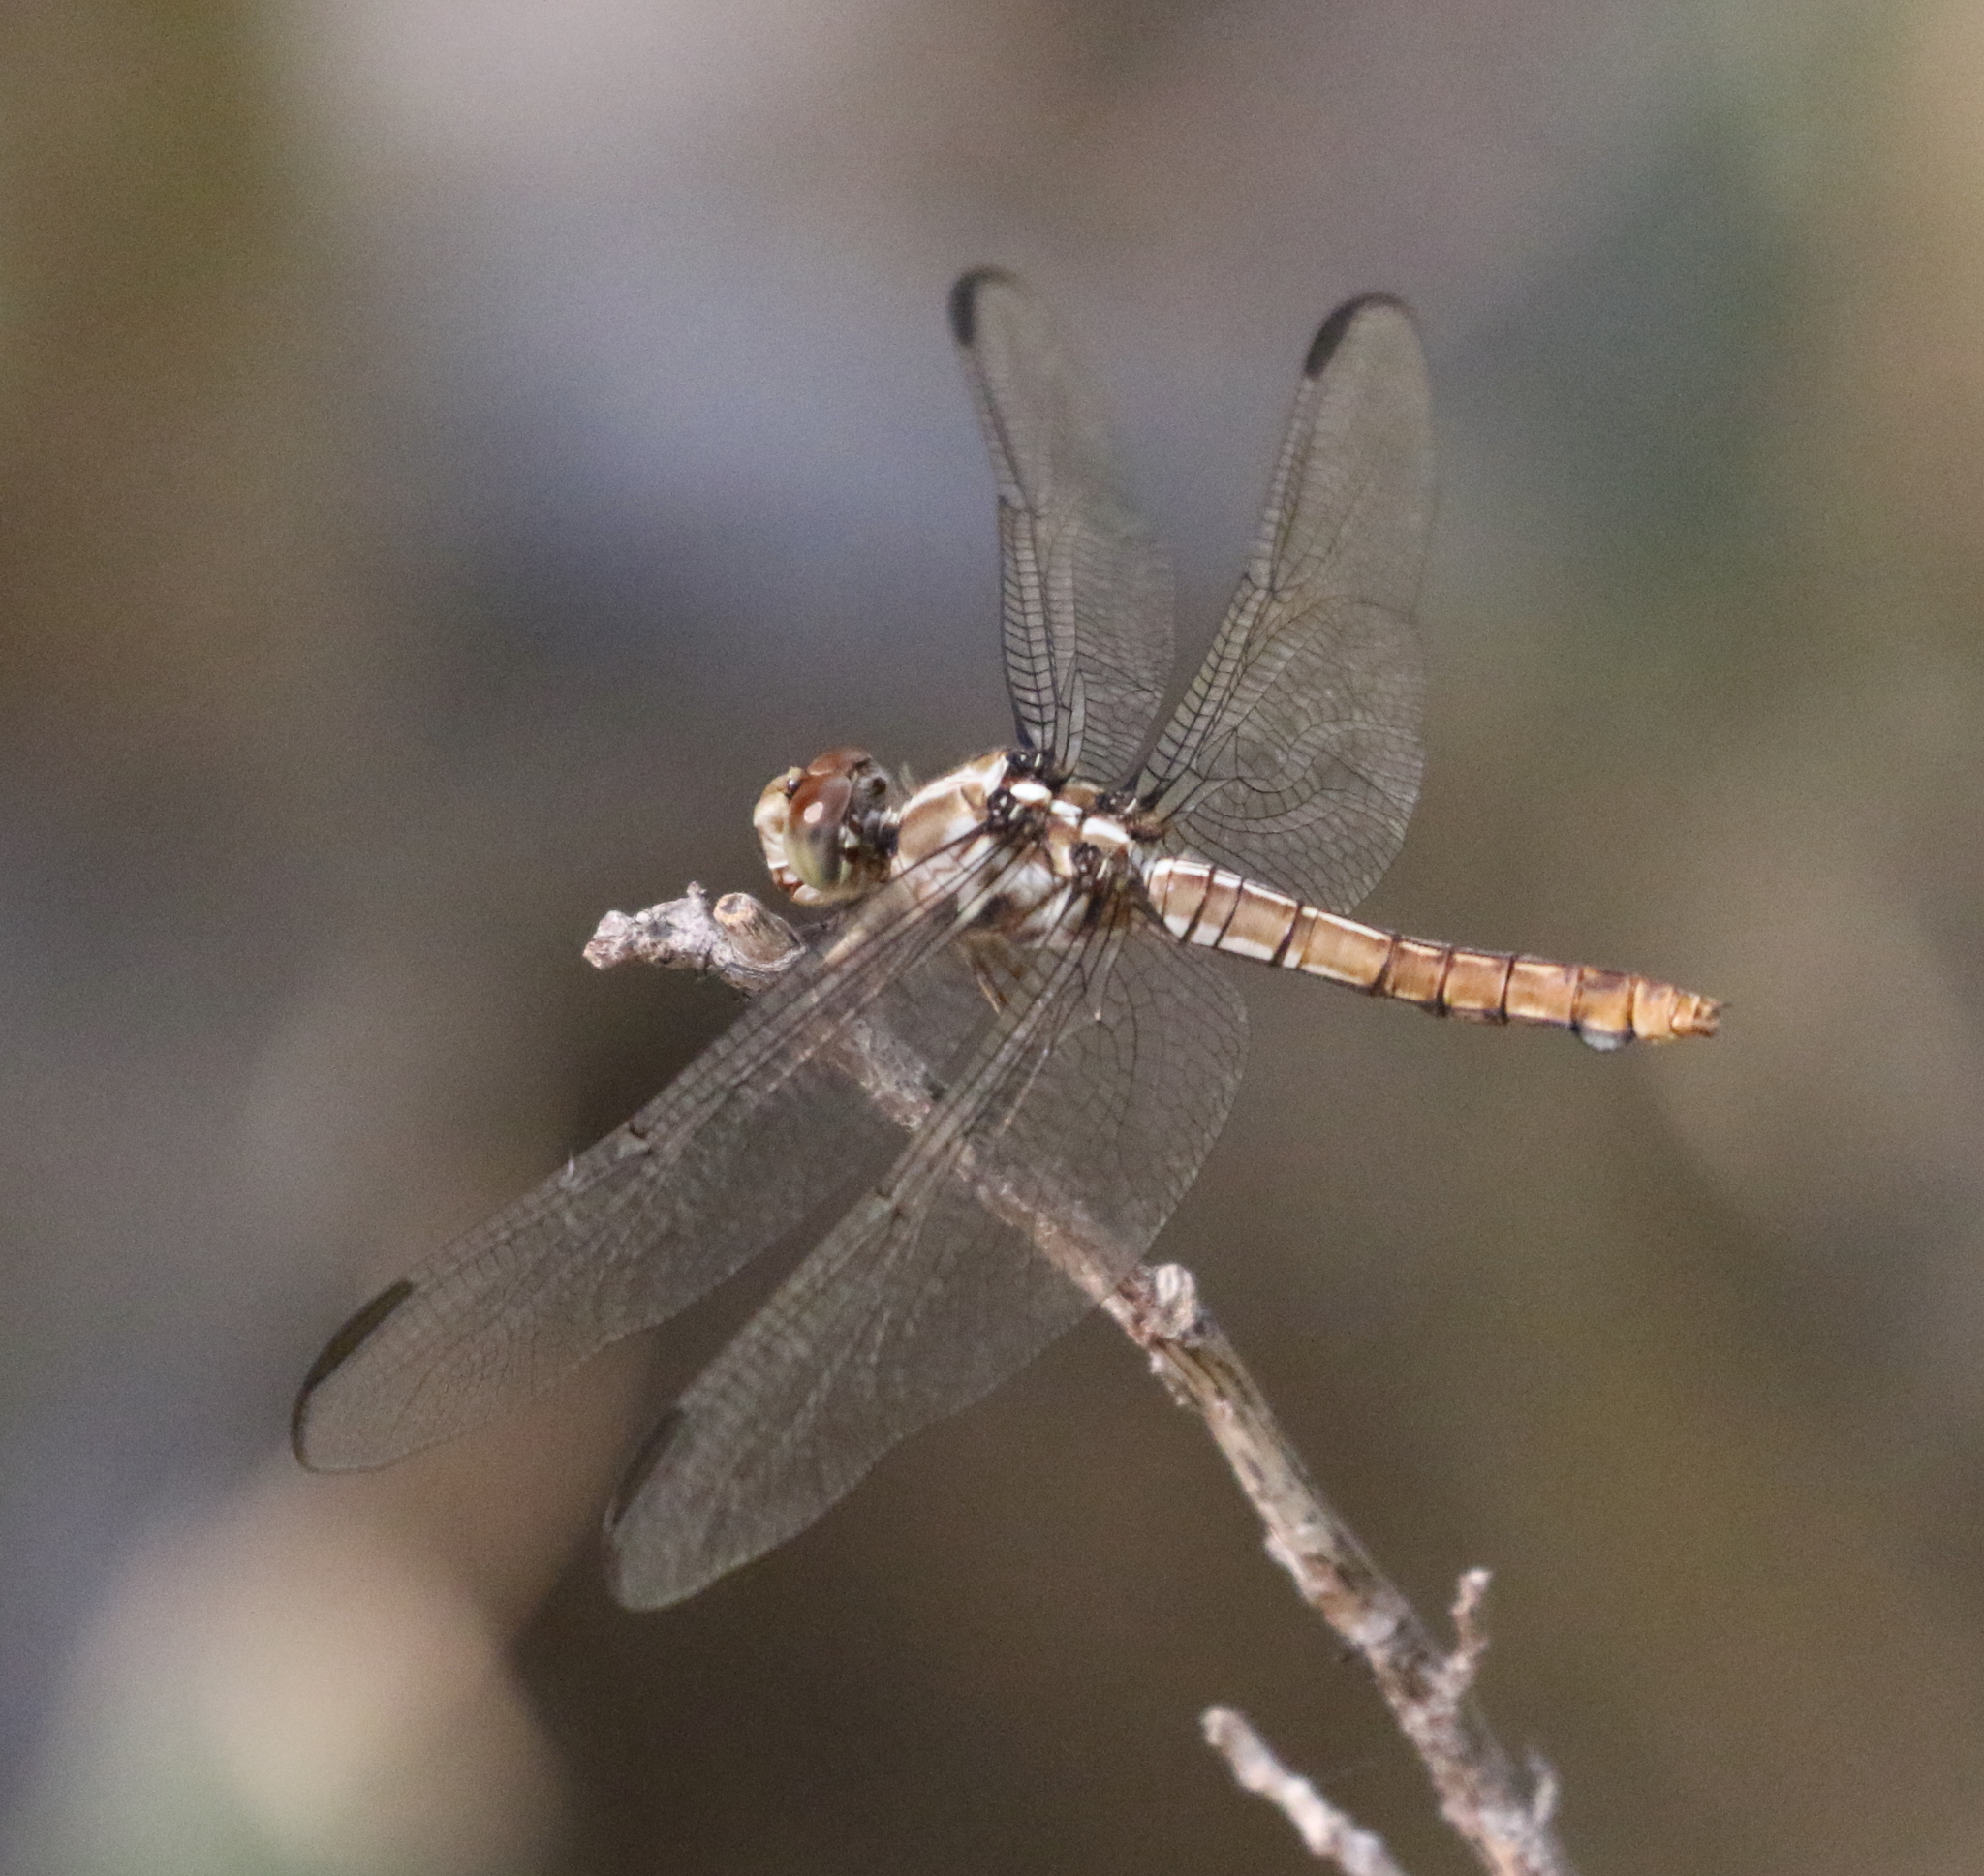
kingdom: Animalia
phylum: Arthropoda
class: Insecta
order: Odonata
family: Libellulidae
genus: Orthemis
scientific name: Orthemis ferruginea
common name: Roseate skimmer
